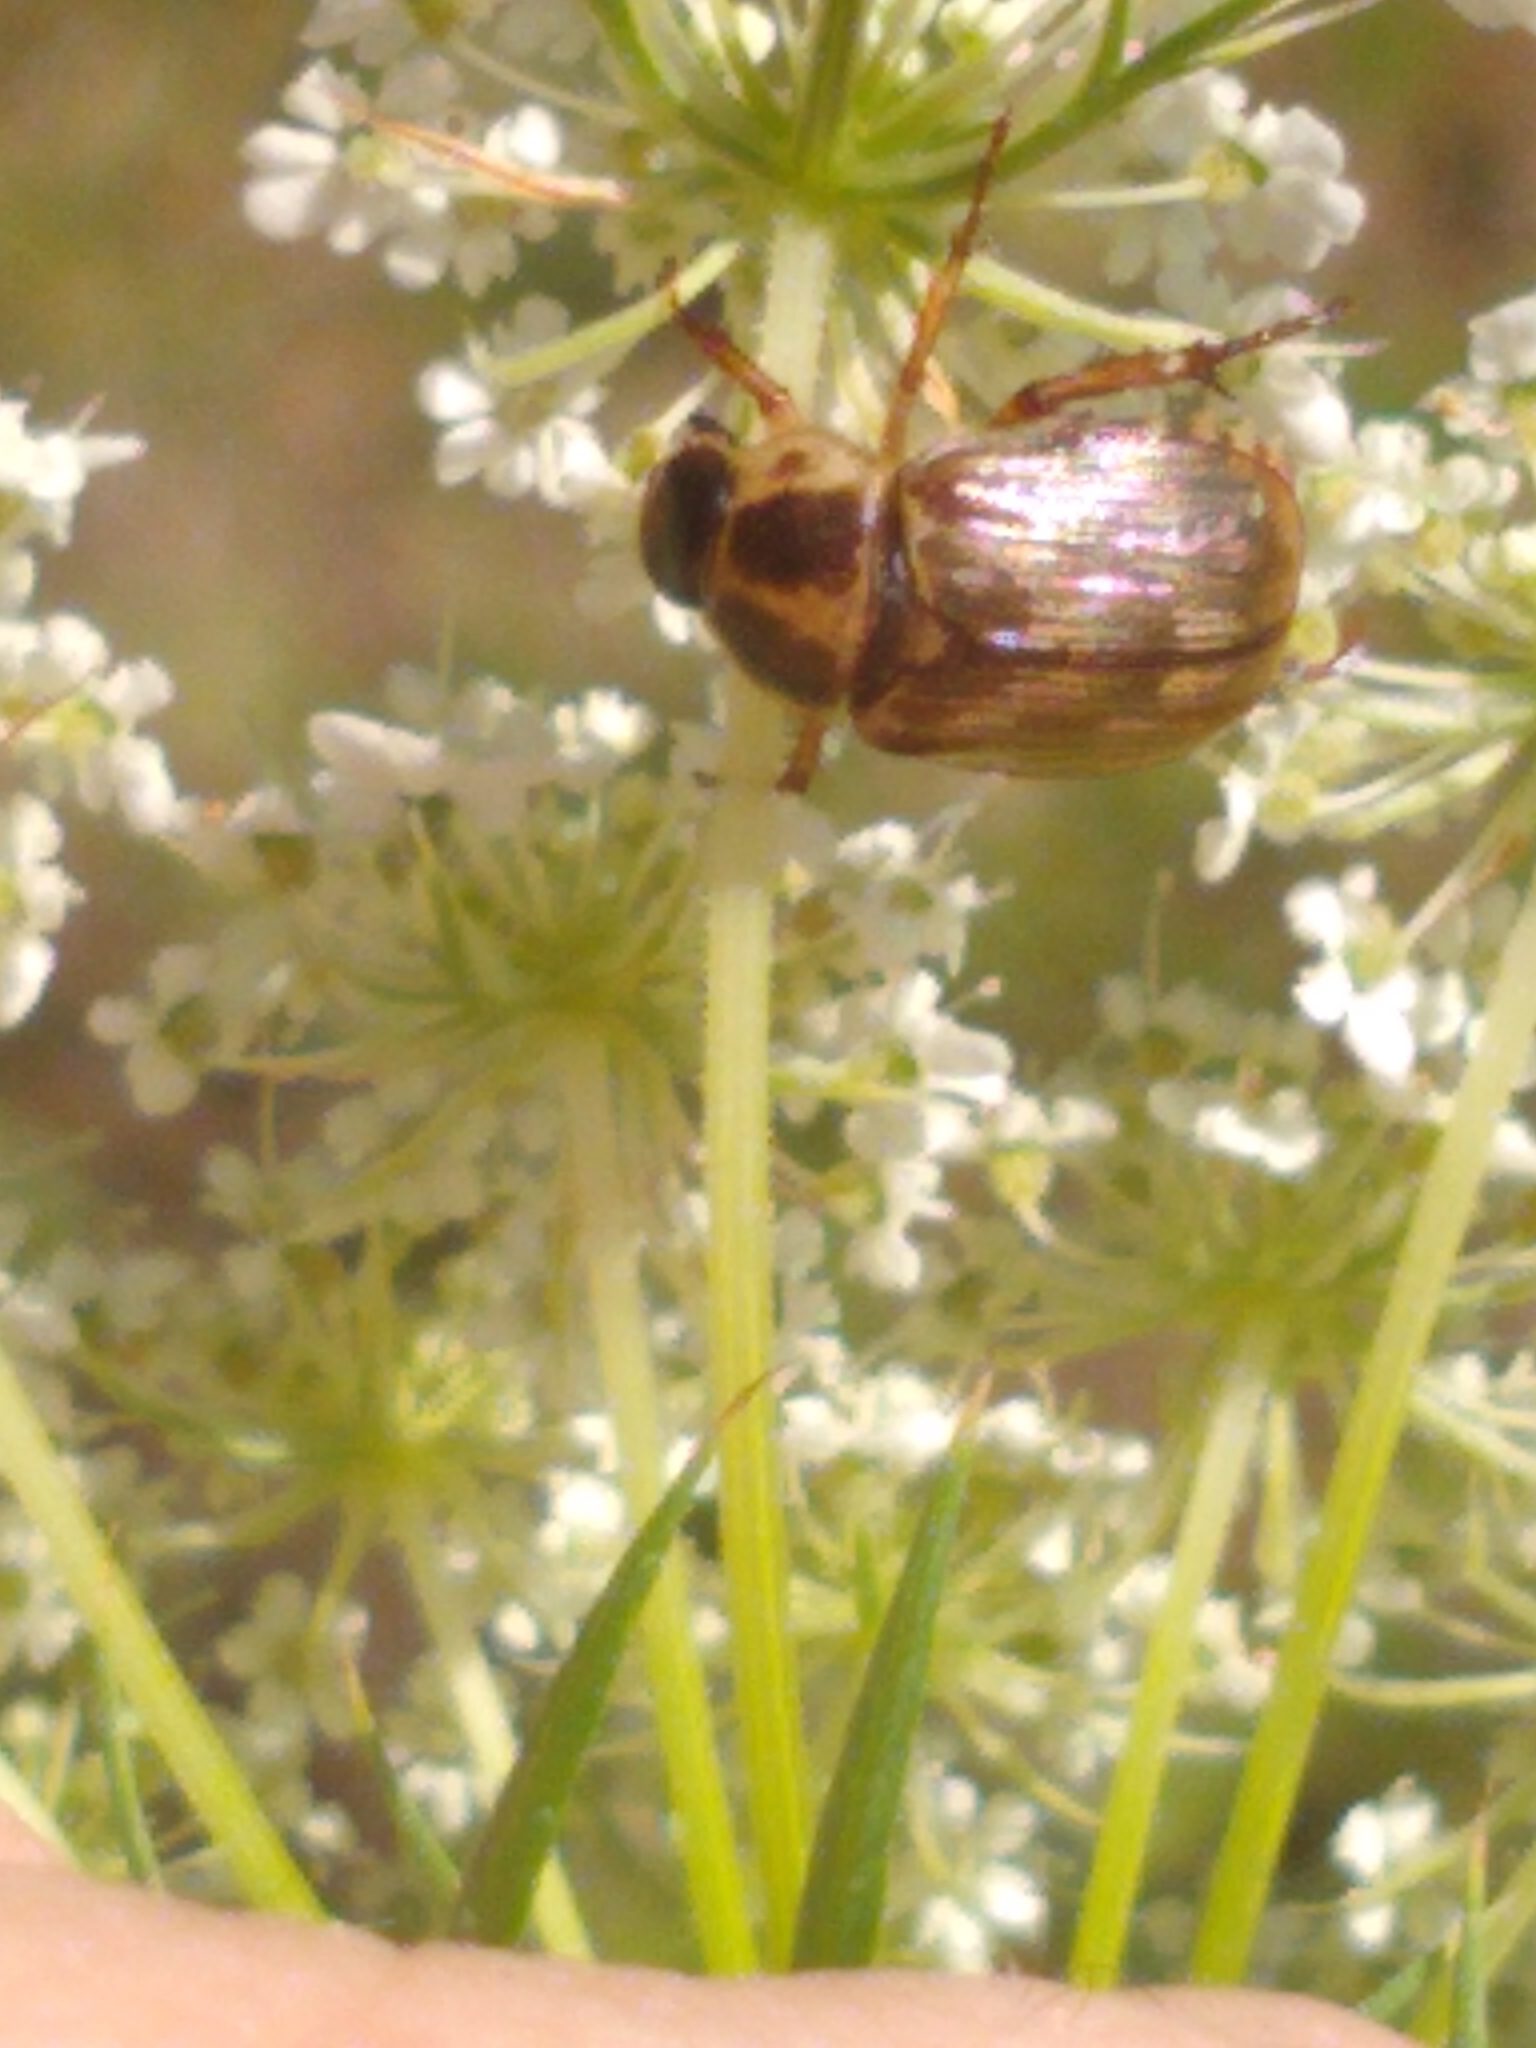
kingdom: Animalia
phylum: Arthropoda
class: Insecta
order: Coleoptera
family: Scarabaeidae
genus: Exomala
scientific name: Exomala orientalis
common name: Oriental beetle
